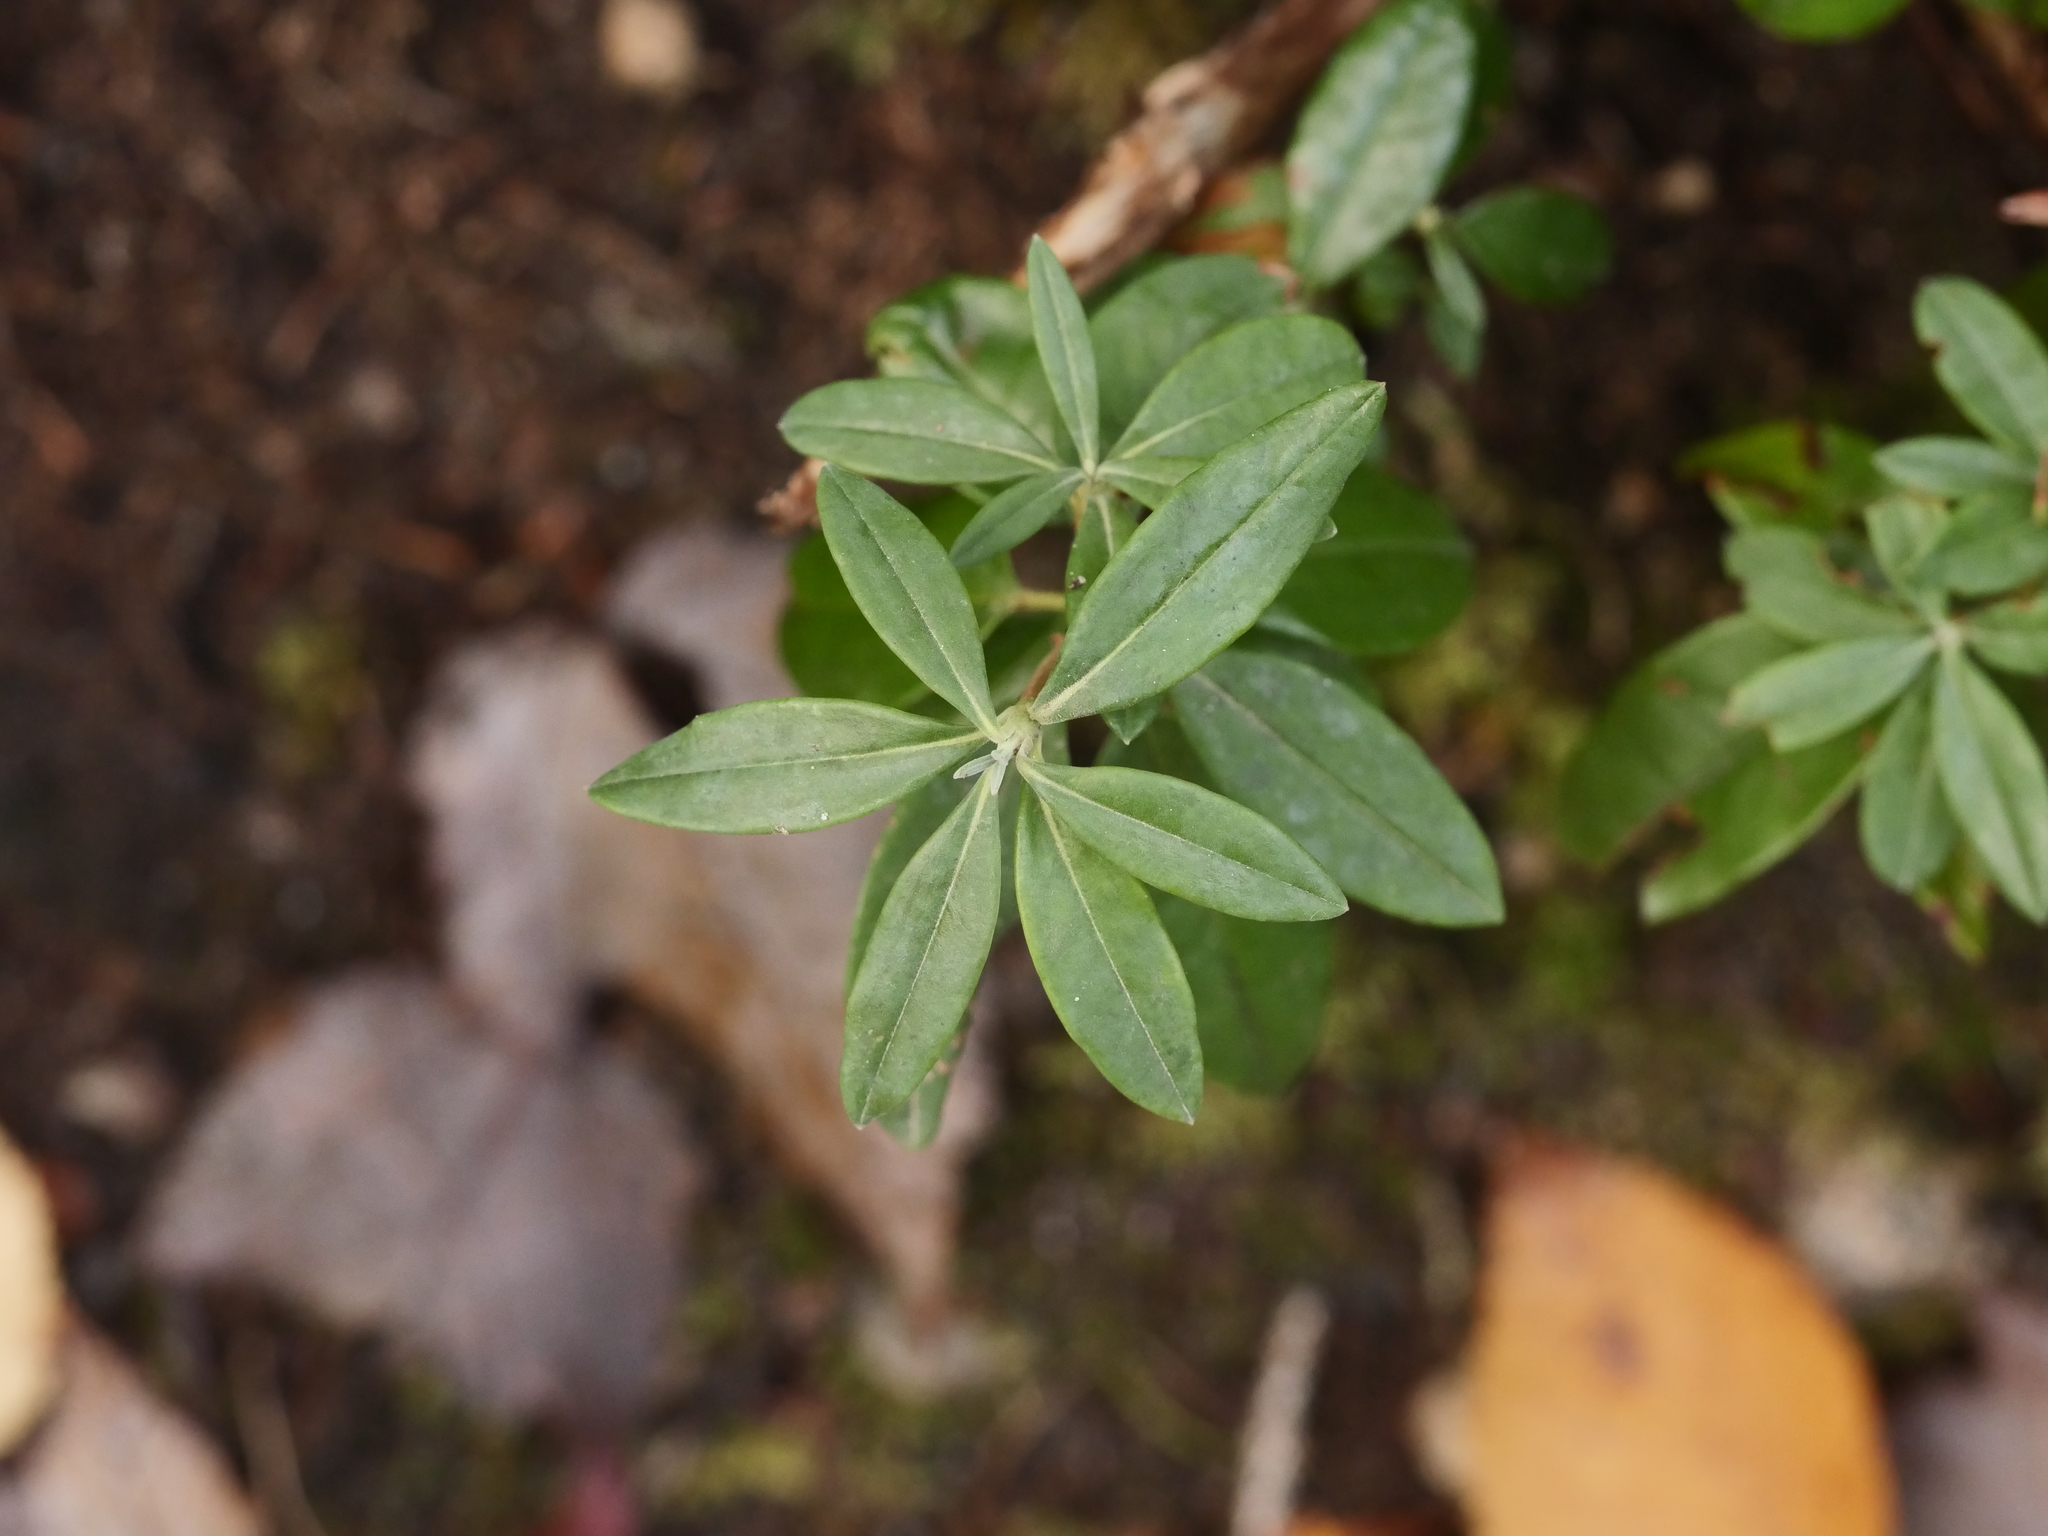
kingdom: Plantae
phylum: Tracheophyta
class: Magnoliopsida
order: Ericales
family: Ericaceae
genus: Kalmia
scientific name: Kalmia angustifolia
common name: Sheep-laurel
